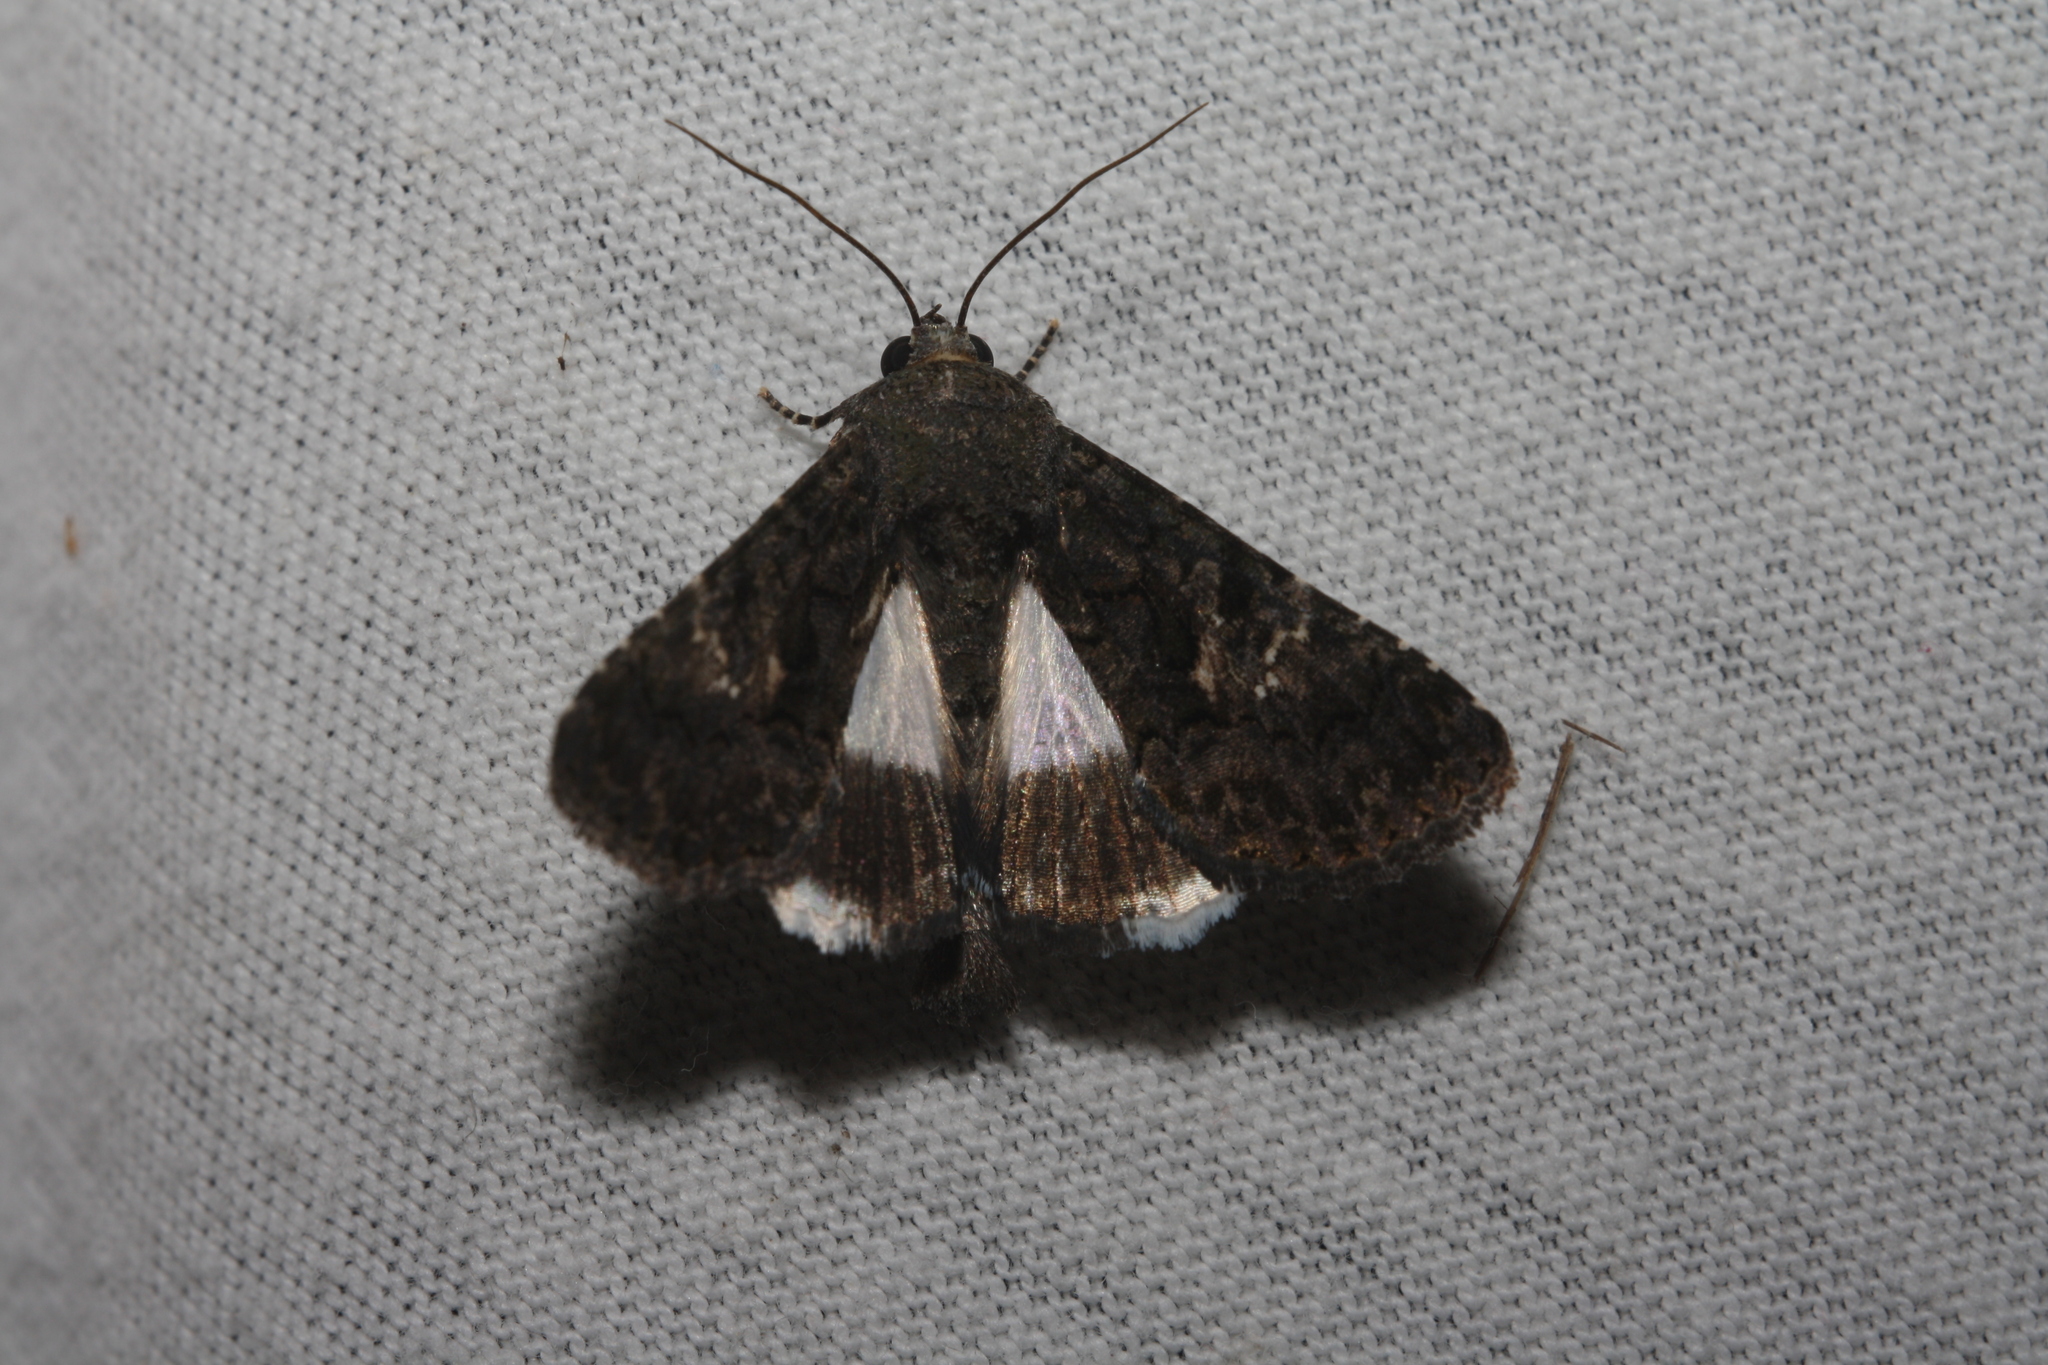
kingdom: Animalia
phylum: Arthropoda
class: Insecta
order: Lepidoptera
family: Noctuidae
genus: Aedia
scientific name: Aedia leucomelas
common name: Sorcerer
